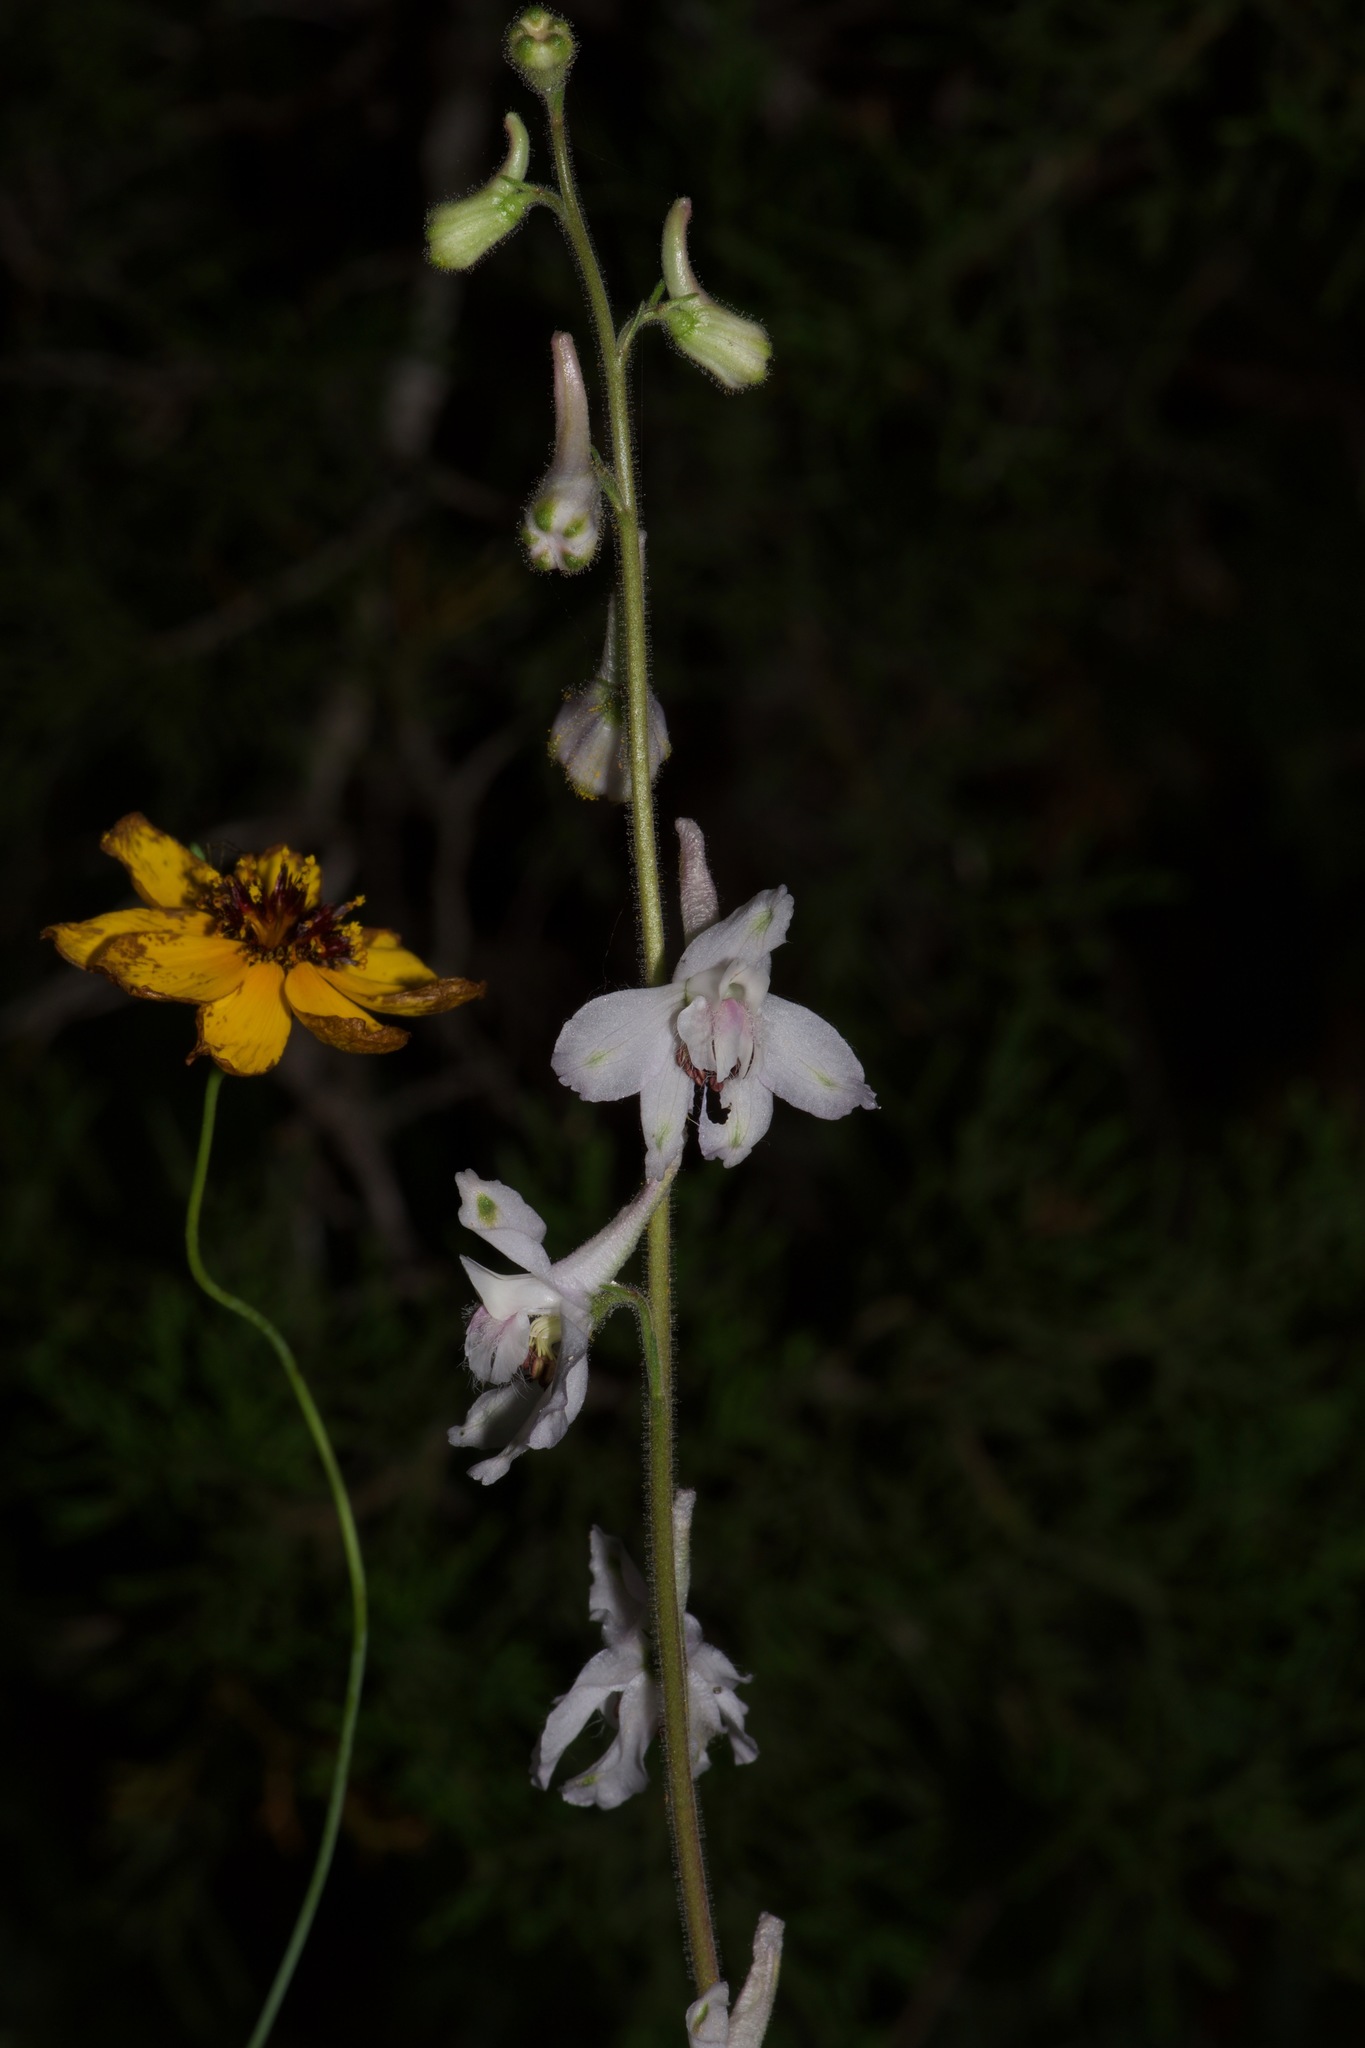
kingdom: Plantae
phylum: Tracheophyta
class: Magnoliopsida
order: Ranunculales
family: Ranunculaceae
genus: Delphinium
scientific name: Delphinium carolinianum
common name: Carolina larkspur
